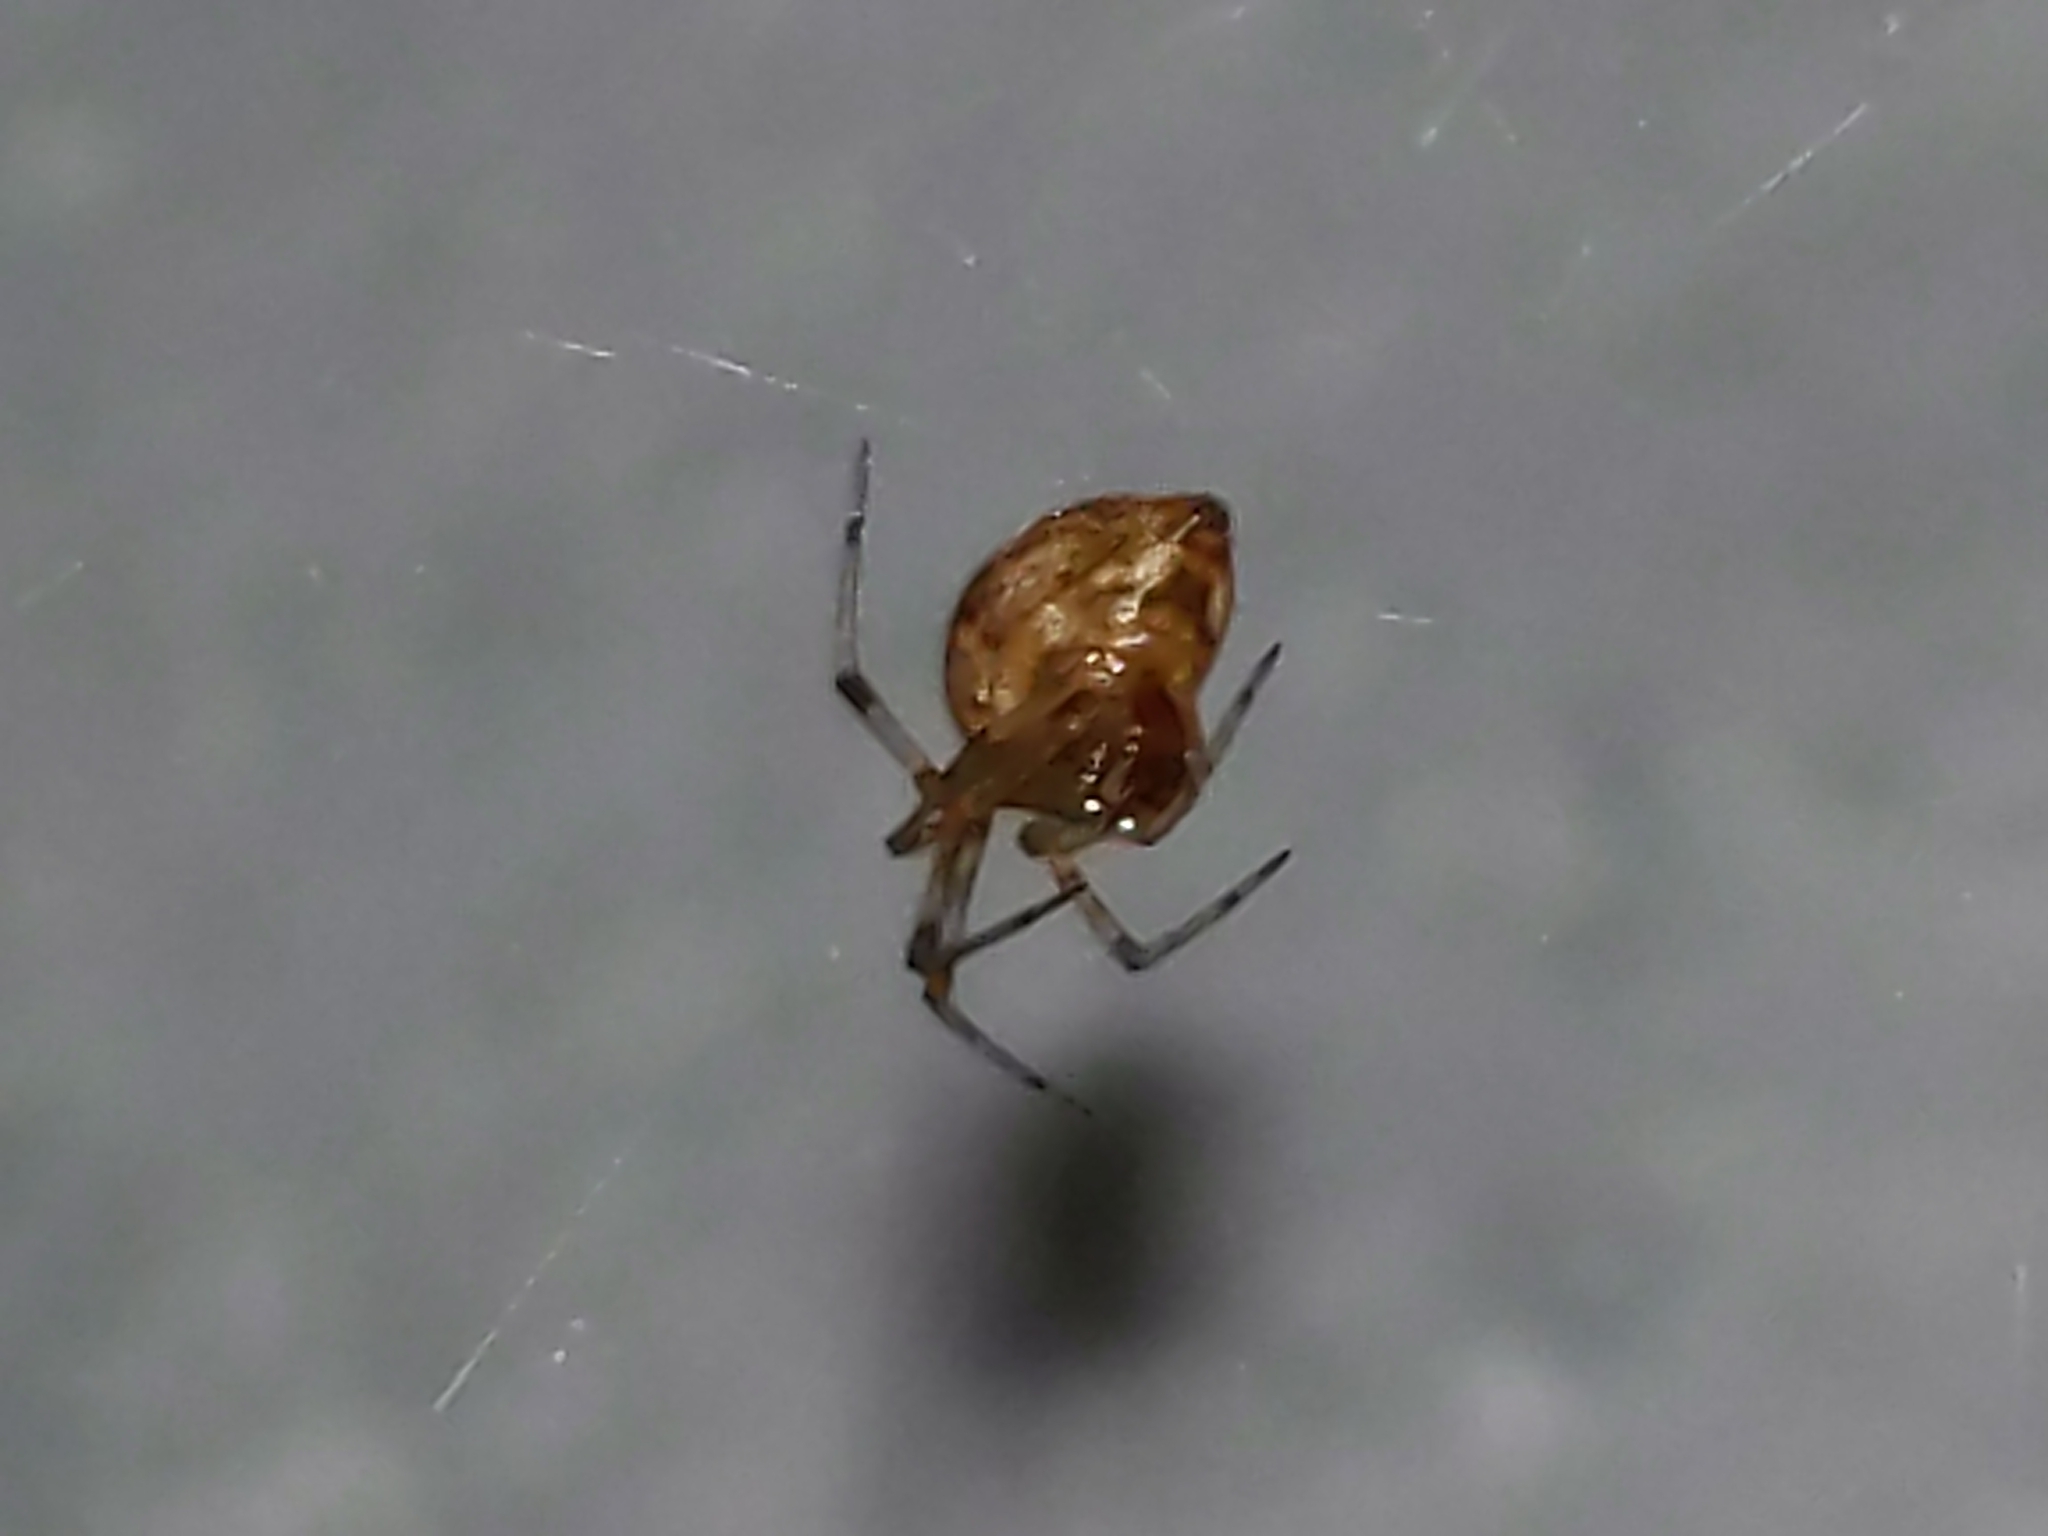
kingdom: Animalia
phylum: Arthropoda
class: Arachnida
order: Araneae
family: Theridiidae
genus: Parasteatoda
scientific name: Parasteatoda tepidariorum
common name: Common house spider
